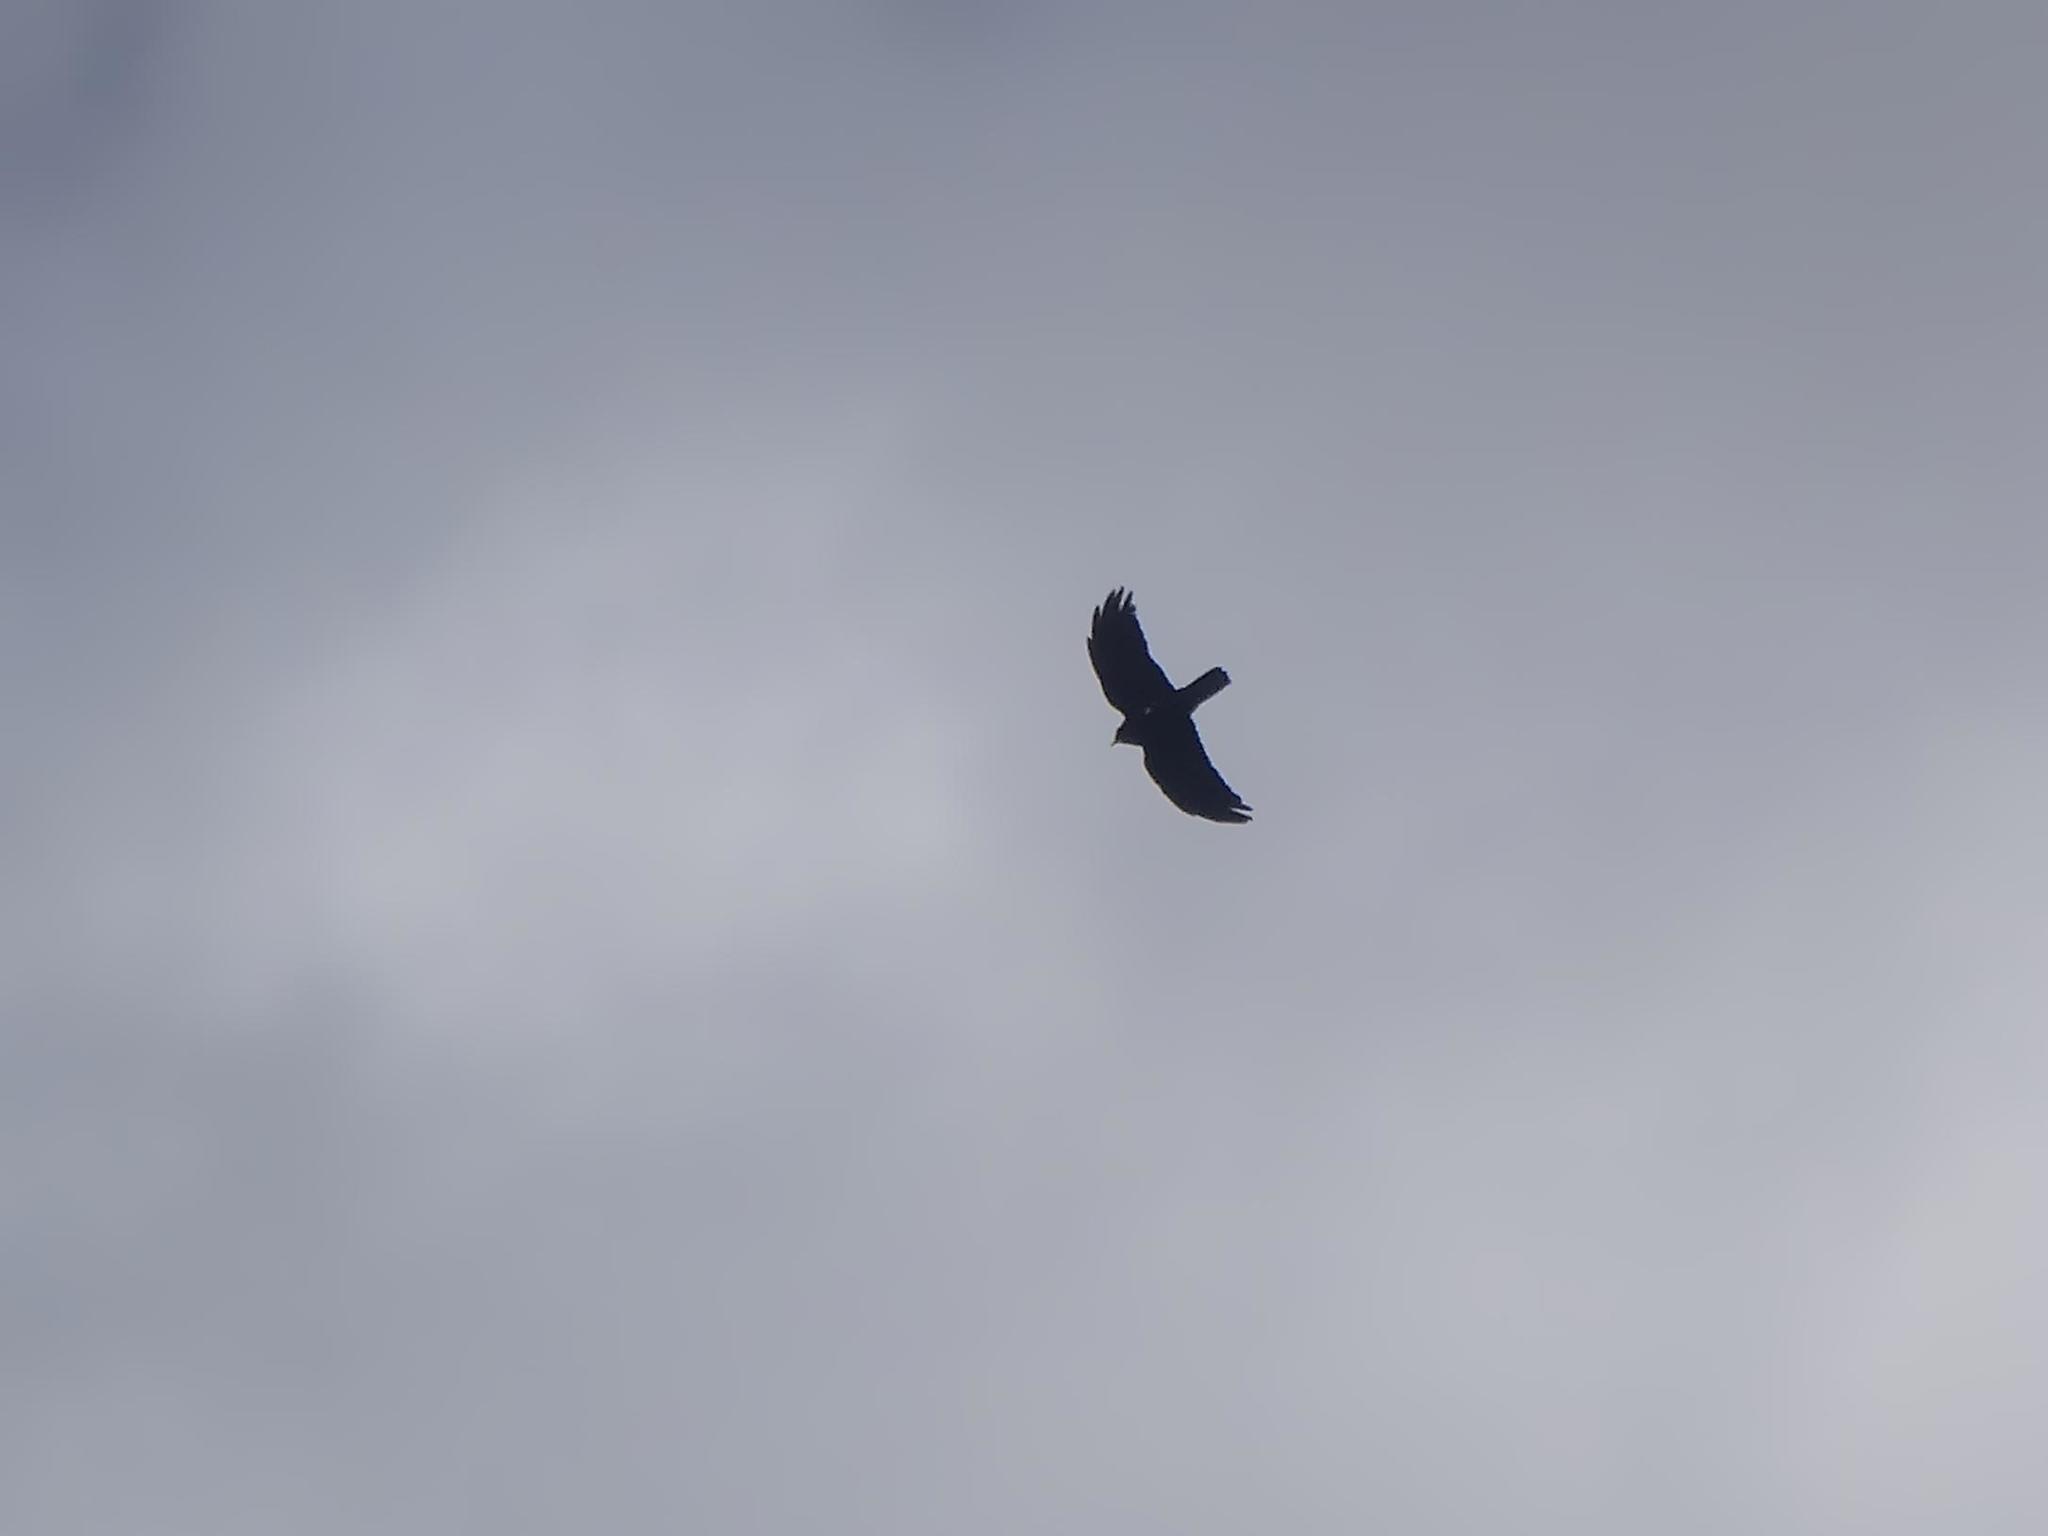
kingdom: Animalia
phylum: Chordata
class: Aves
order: Passeriformes
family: Corvidae
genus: Pyrrhocorax
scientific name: Pyrrhocorax graculus
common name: Alpine chough
